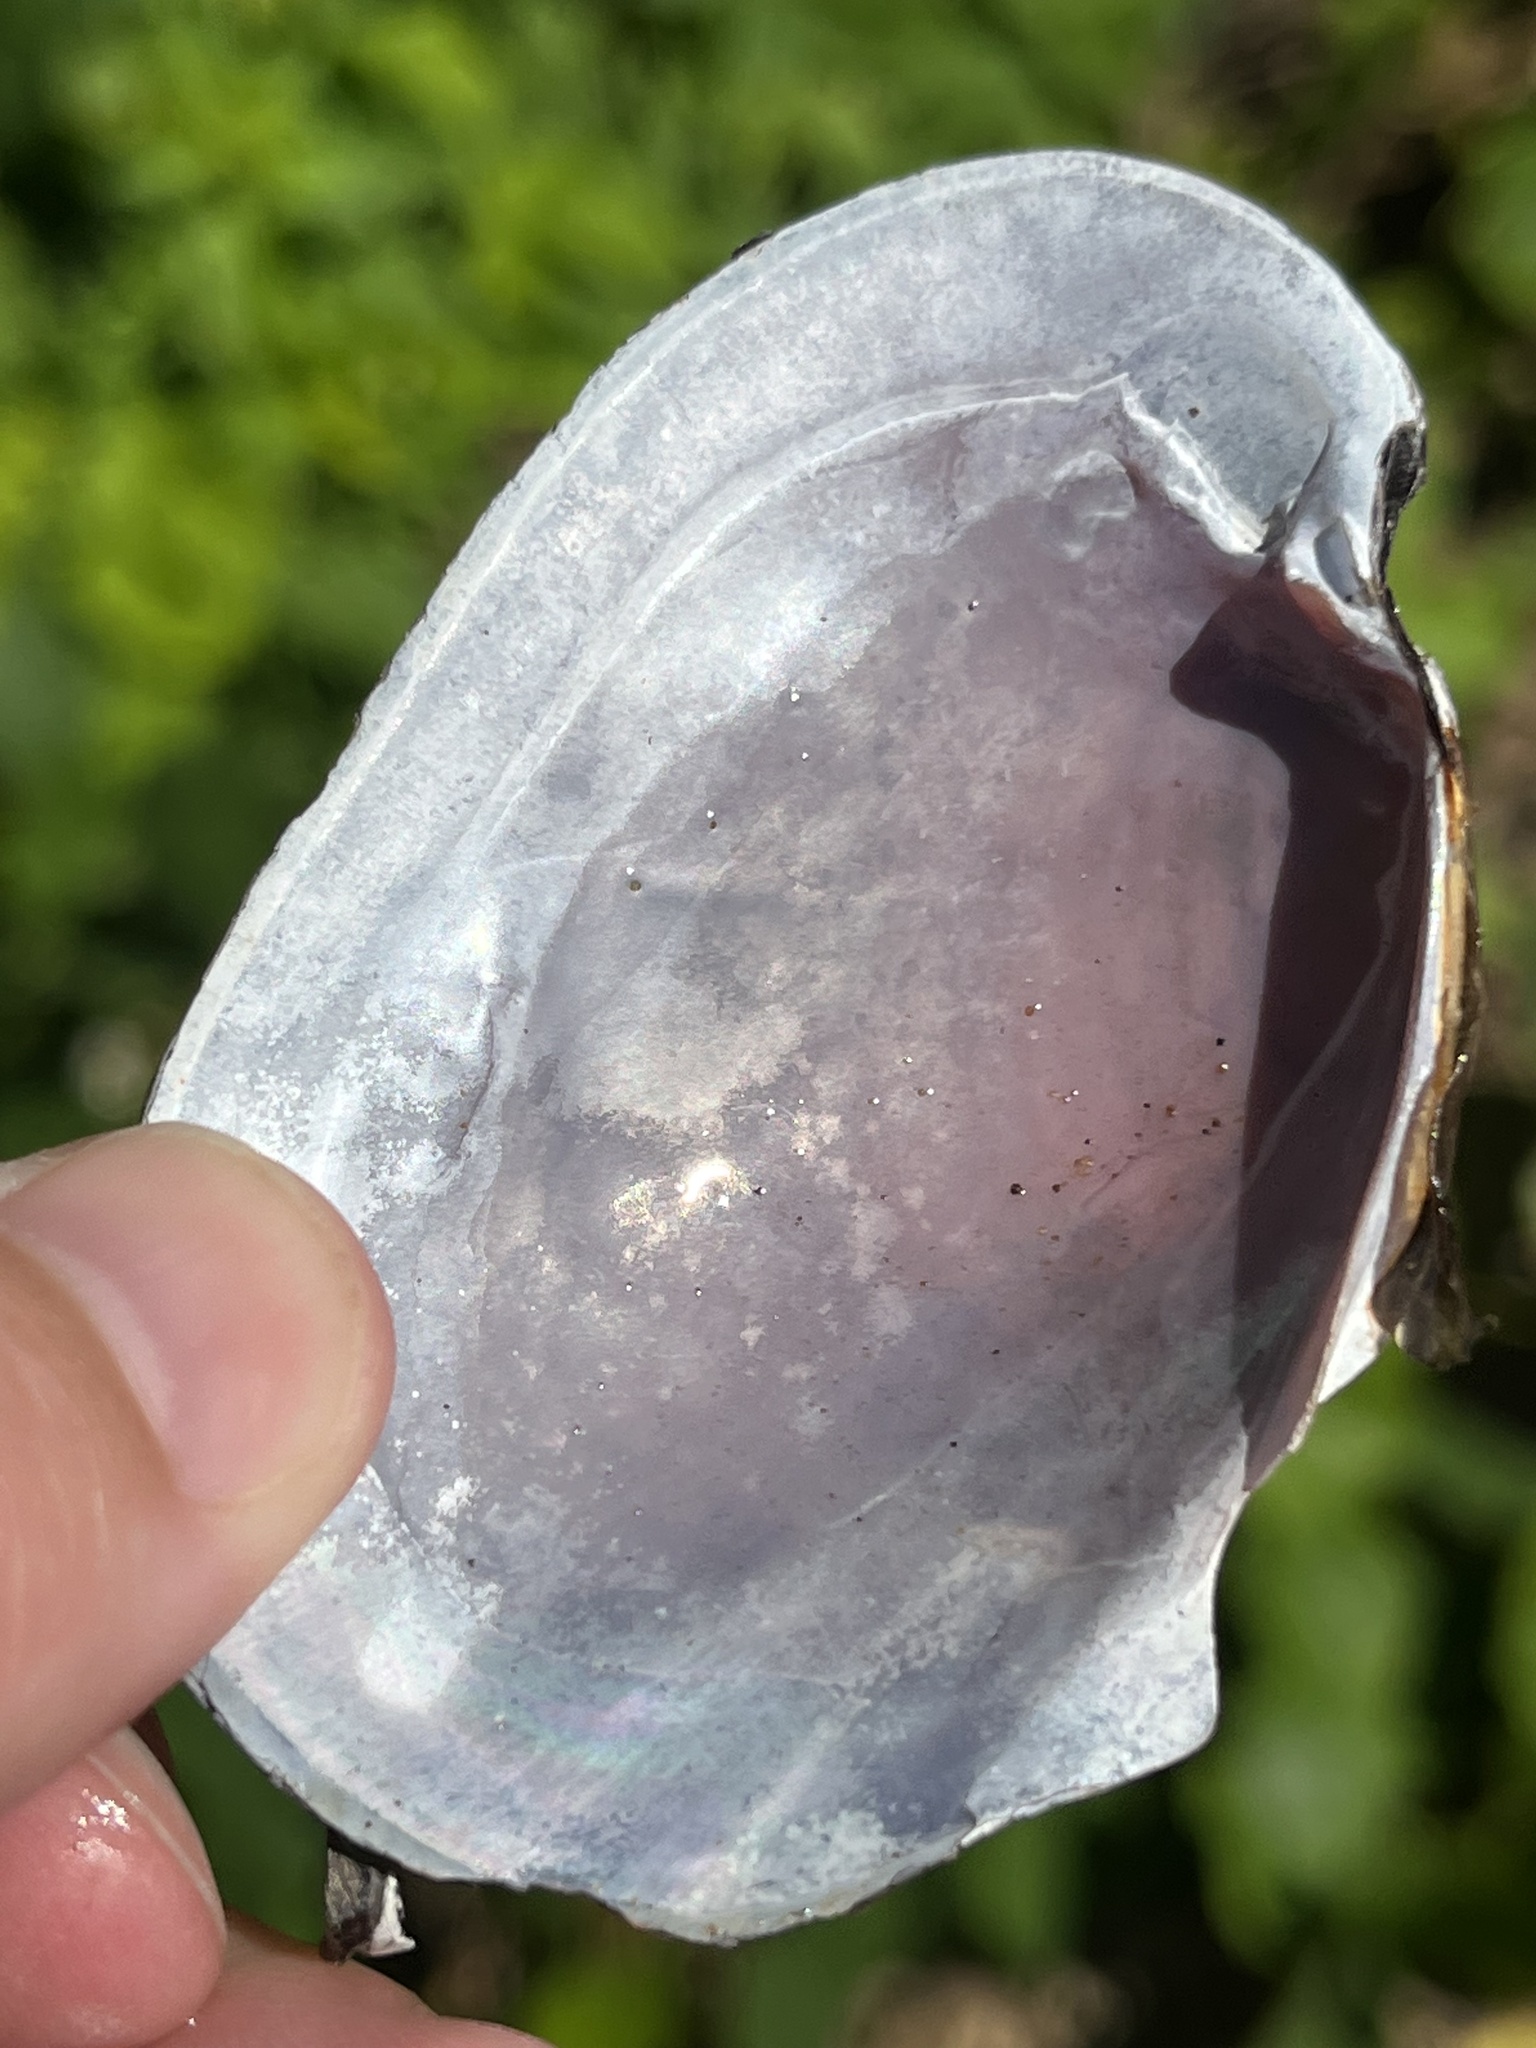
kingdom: Animalia
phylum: Mollusca
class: Bivalvia
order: Unionida
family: Unionidae
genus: Potamilus
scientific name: Potamilus alatus
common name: Pink heelsplitter
